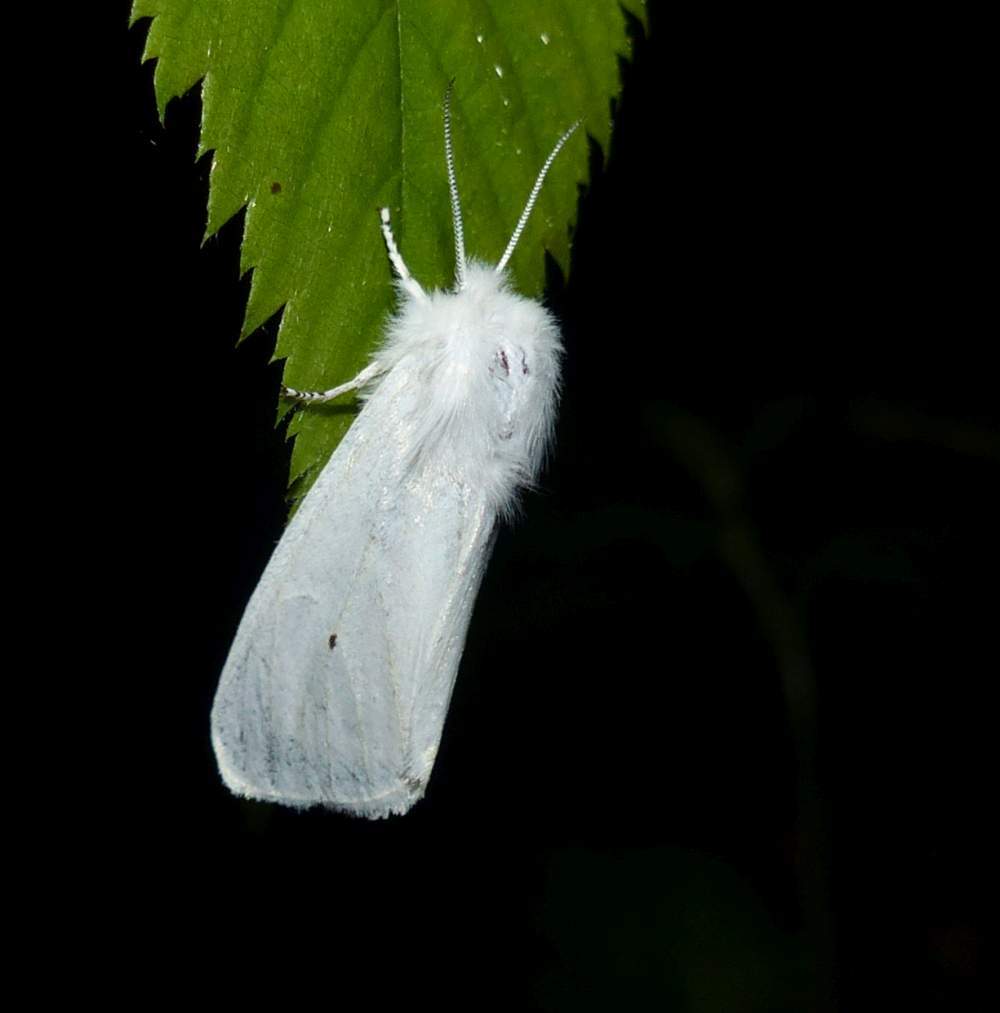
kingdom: Animalia
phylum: Arthropoda
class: Insecta
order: Lepidoptera
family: Erebidae
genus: Spilosoma
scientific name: Spilosoma virginica
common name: Virginia tiger moth
